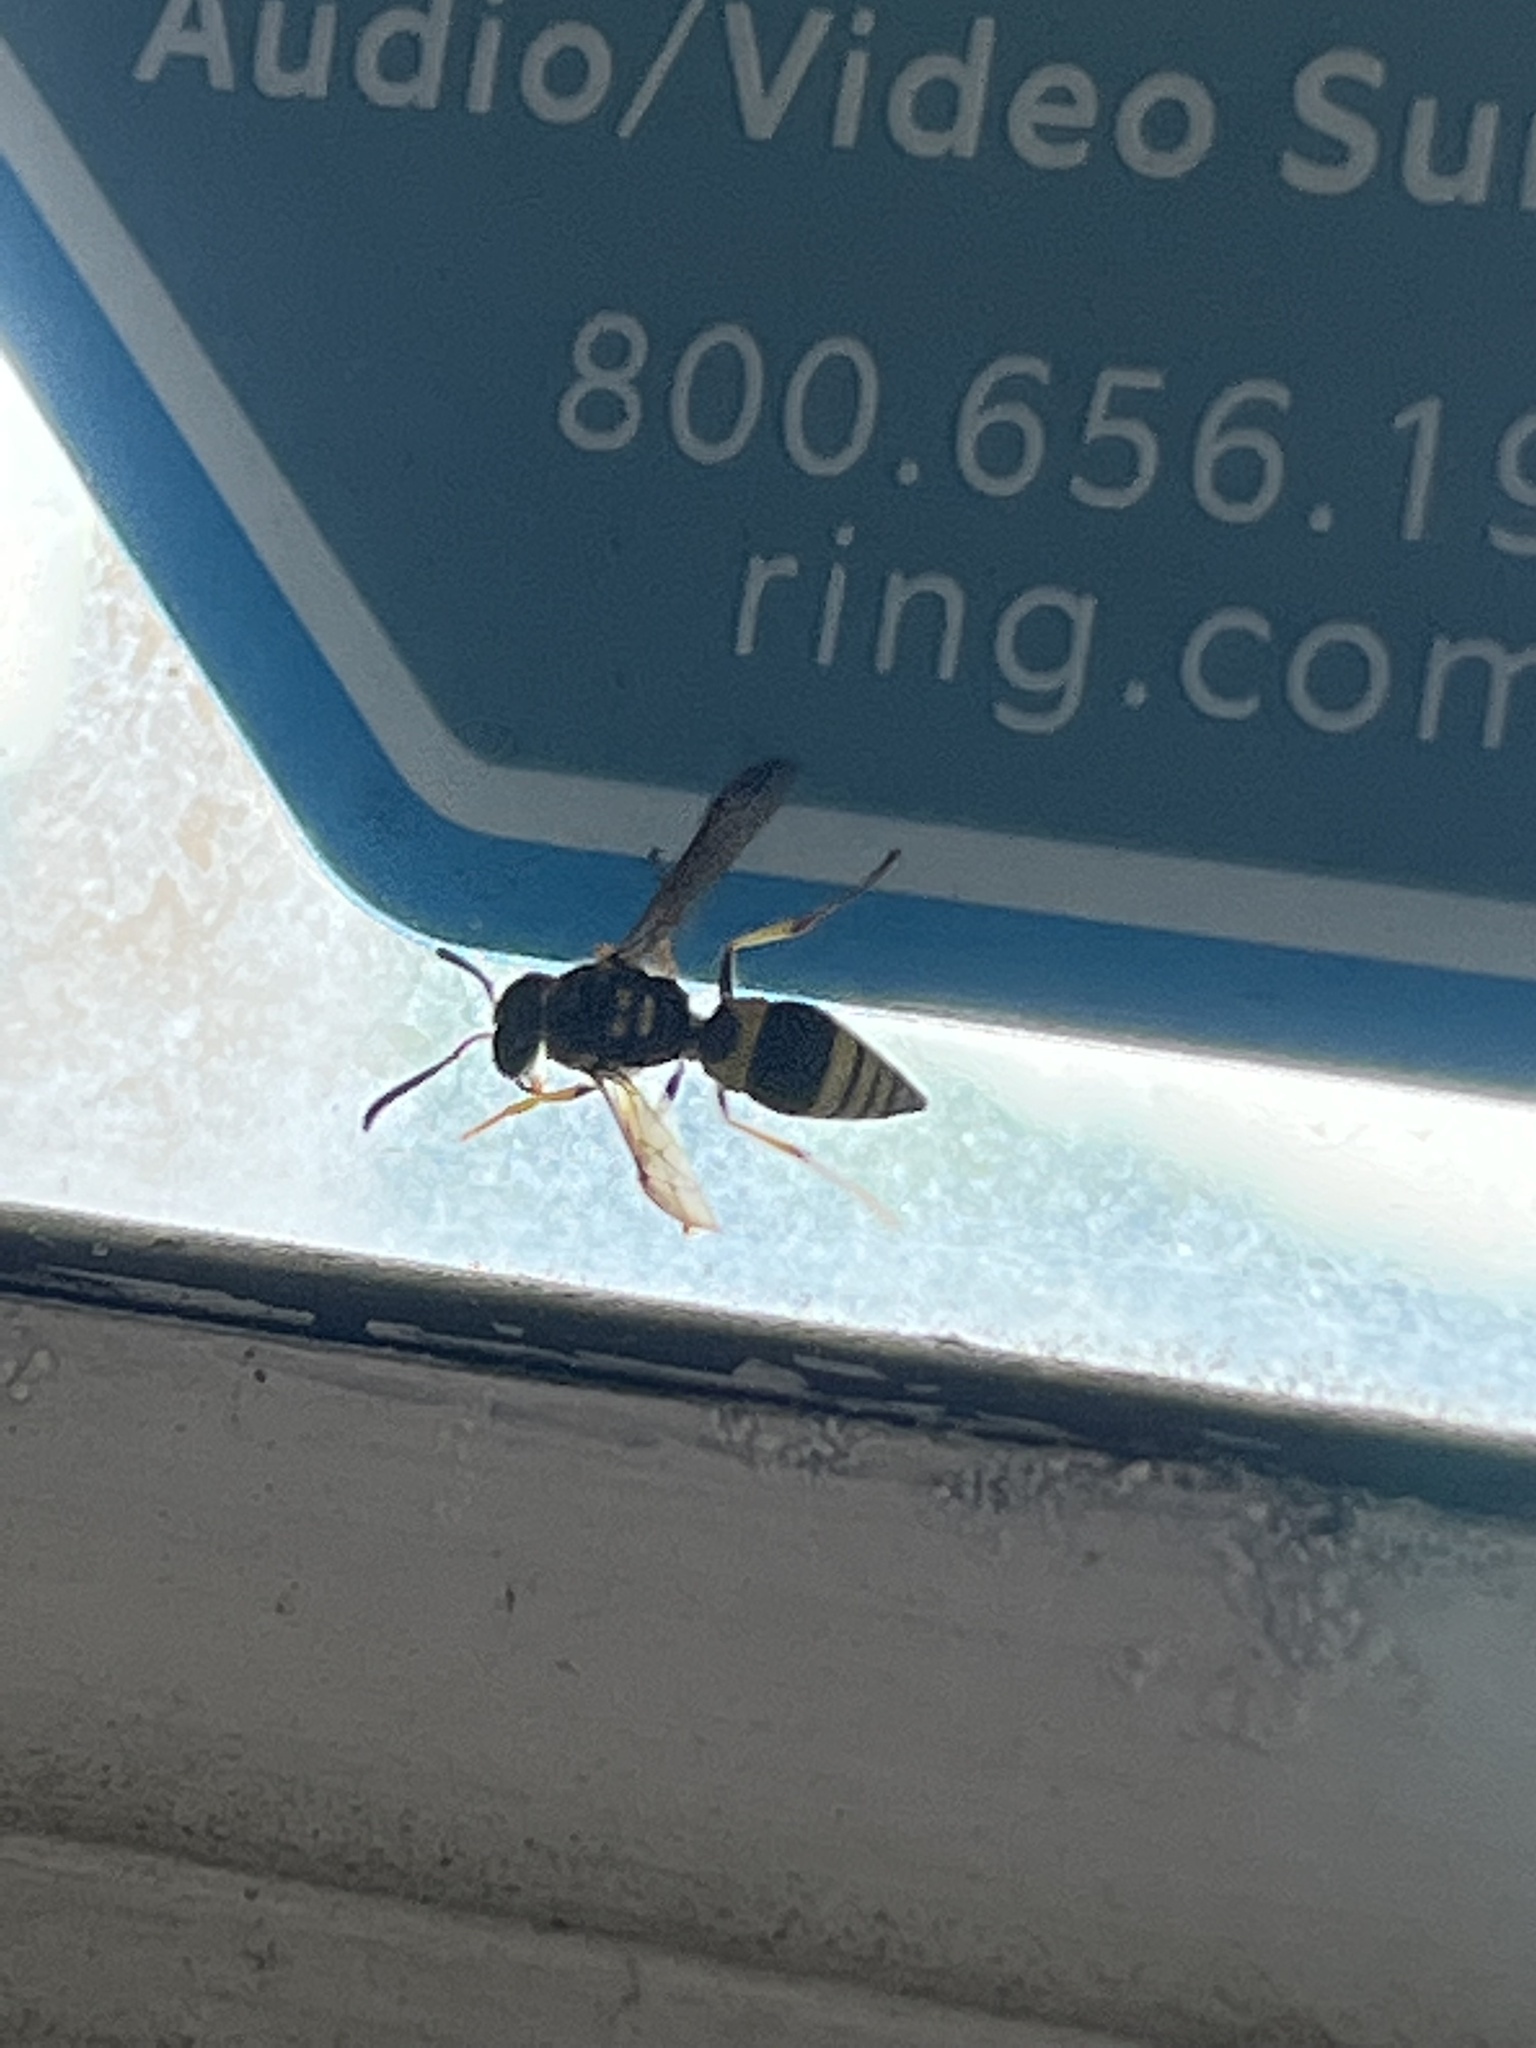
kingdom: Animalia
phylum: Arthropoda
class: Insecta
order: Hymenoptera
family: Vespidae
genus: Ancistrocerus
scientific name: Ancistrocerus gazella
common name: European tube wasp
